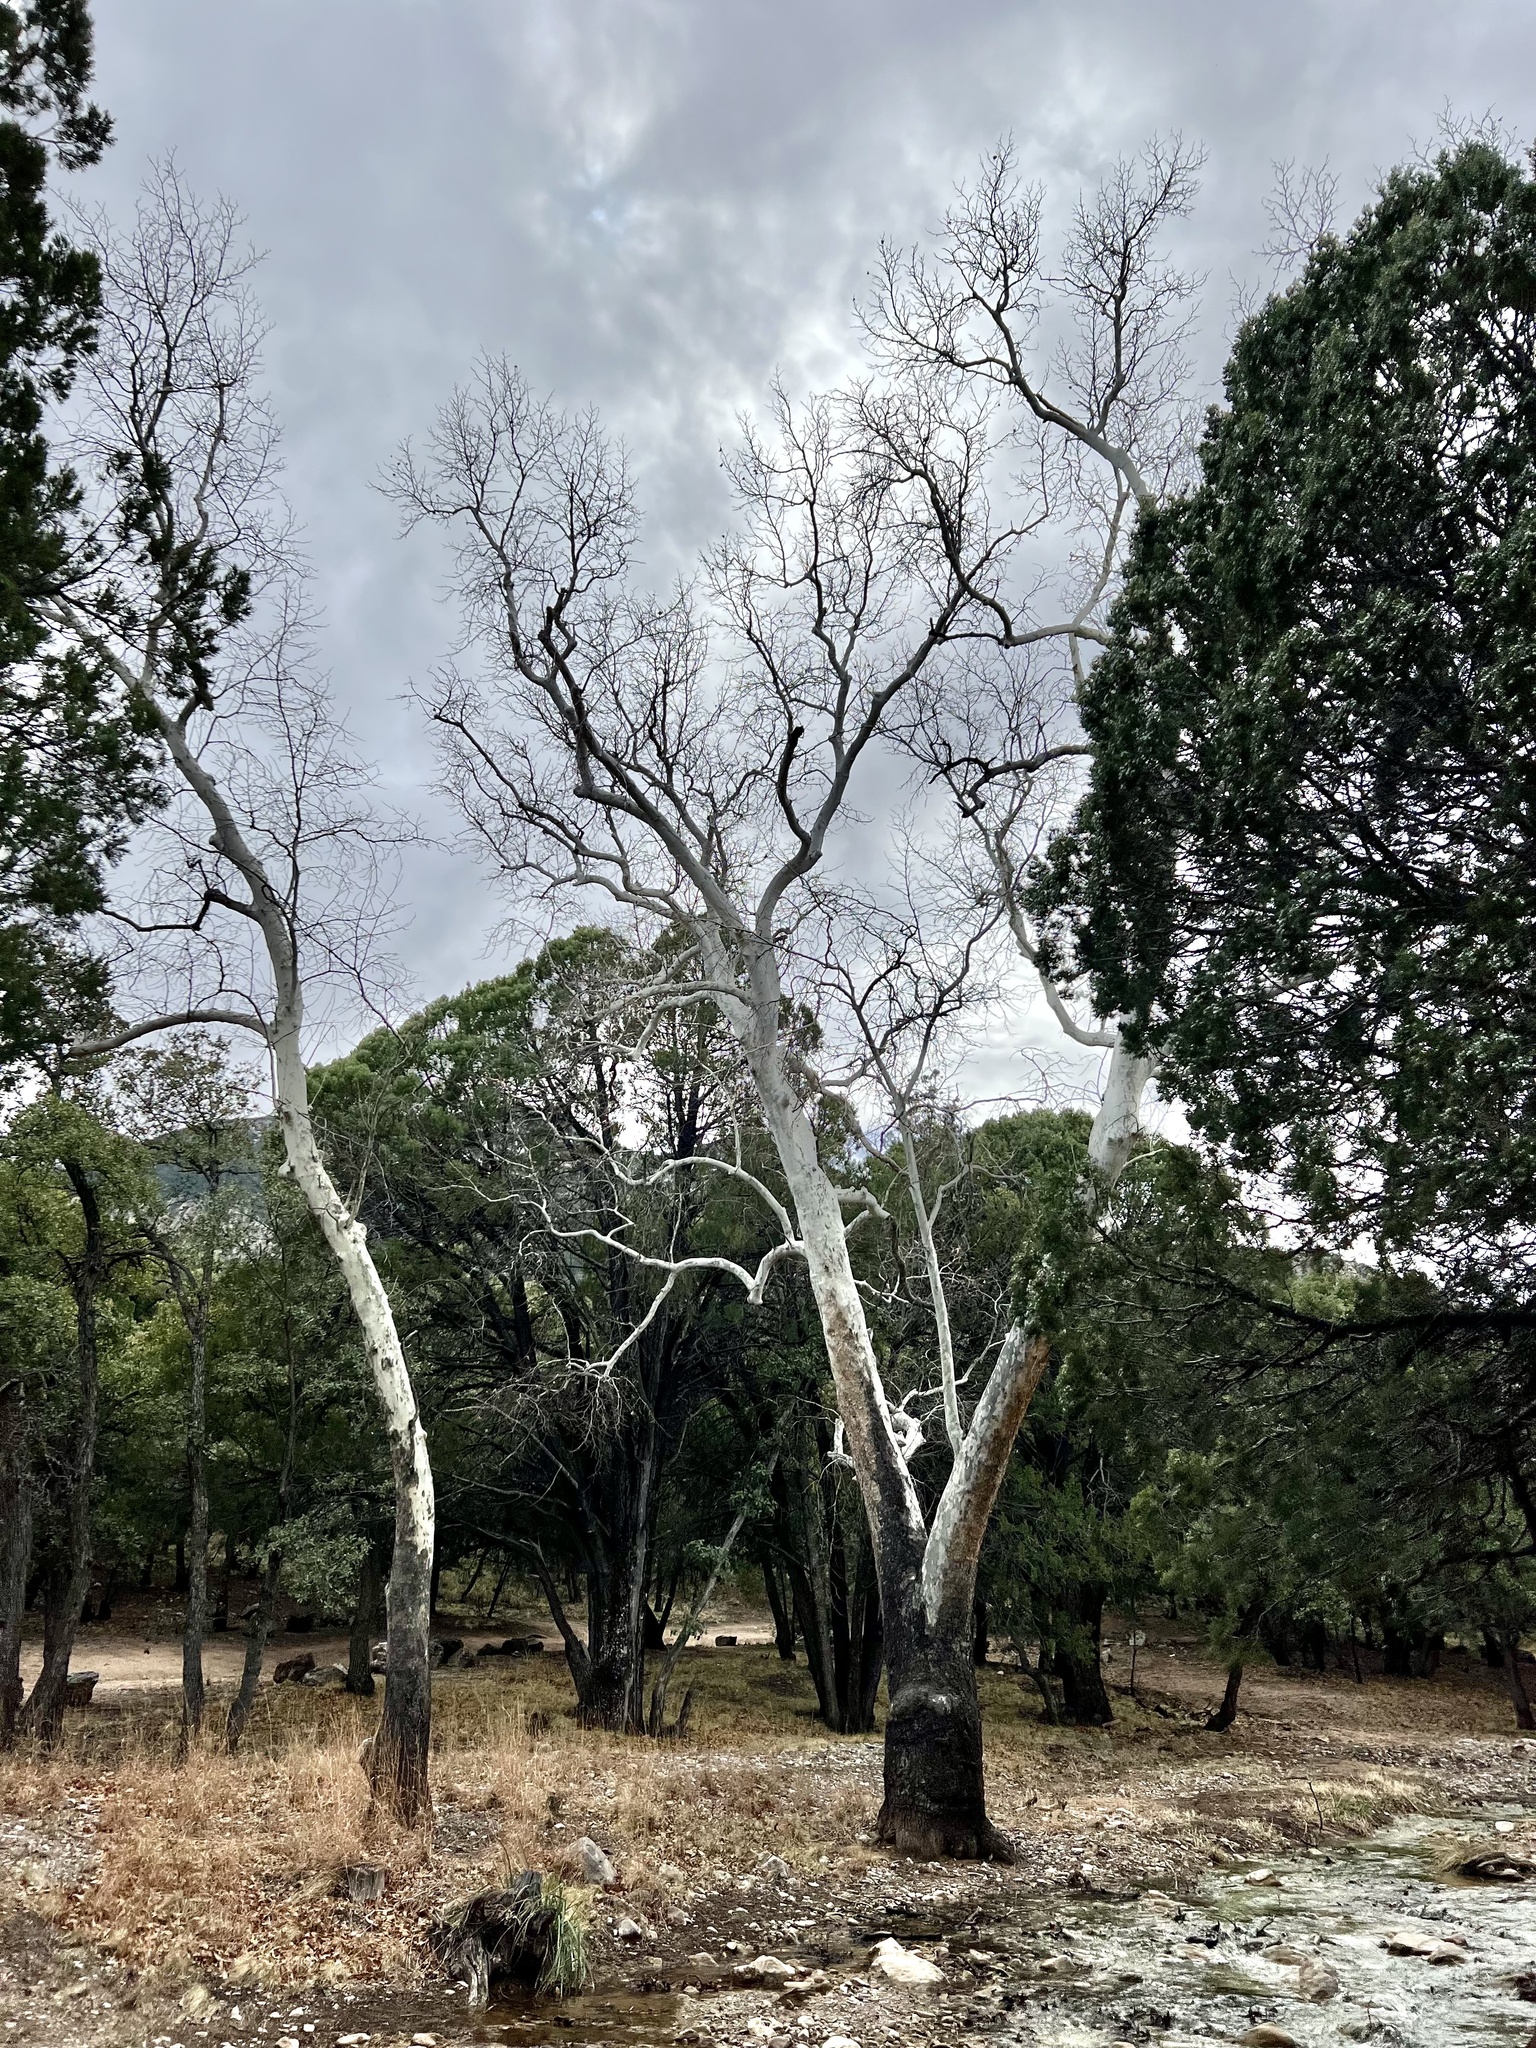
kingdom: Plantae
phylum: Tracheophyta
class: Magnoliopsida
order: Proteales
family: Platanaceae
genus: Platanus
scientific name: Platanus wrightii
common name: Arizona sycamore
